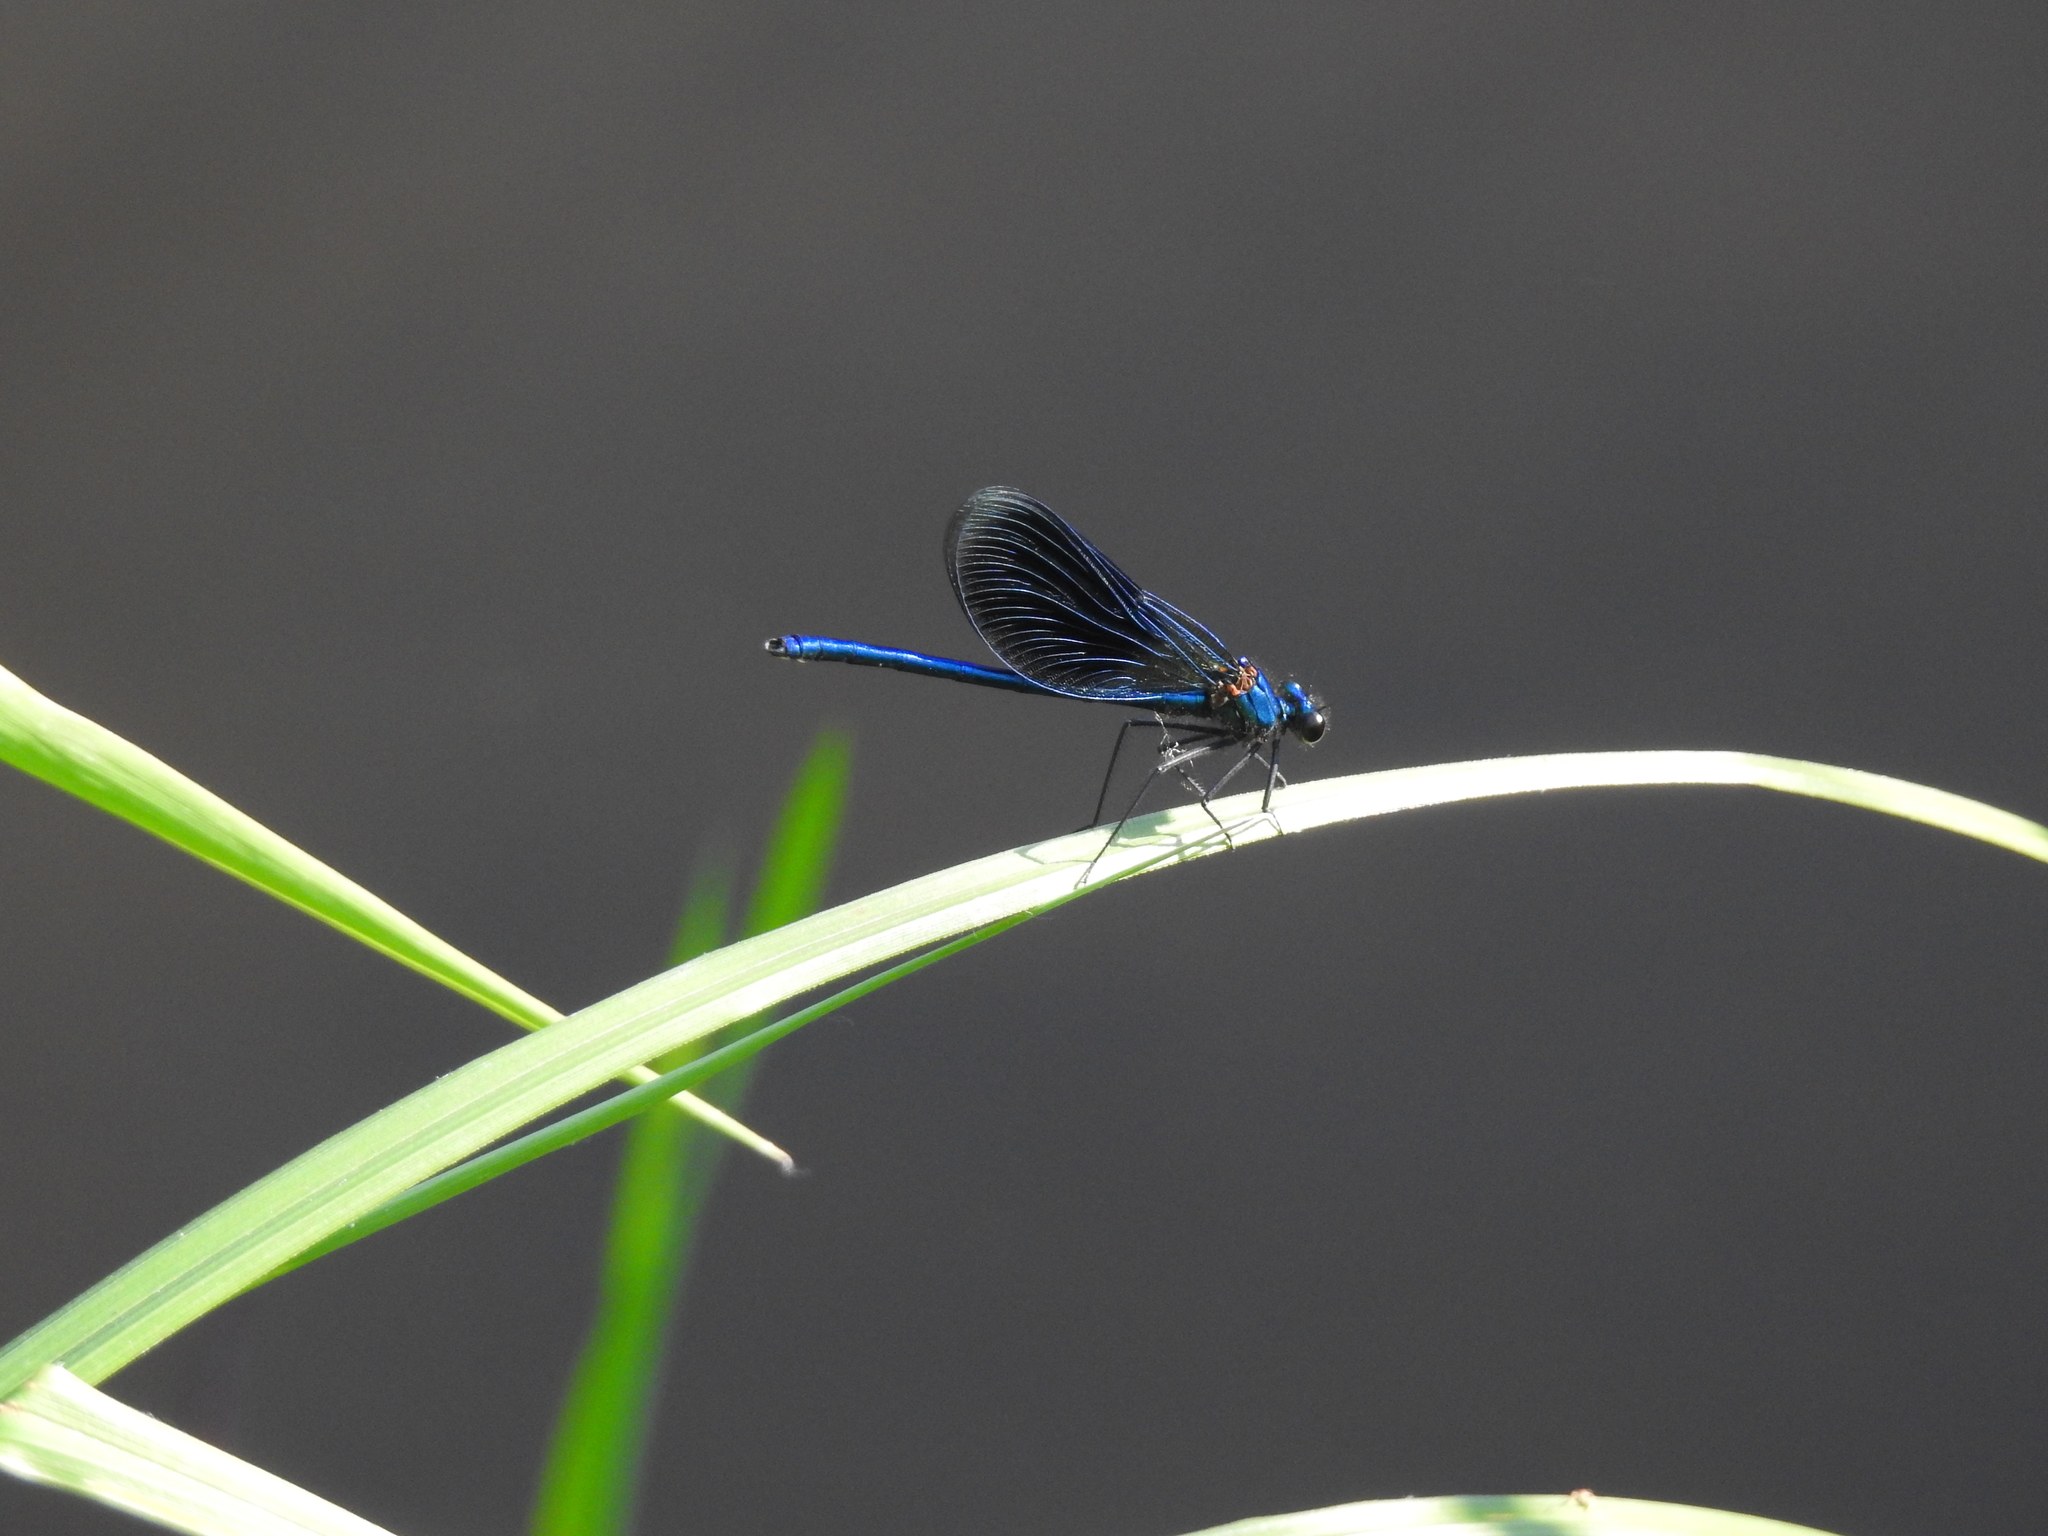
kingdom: Animalia
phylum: Arthropoda
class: Insecta
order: Odonata
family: Calopterygidae
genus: Calopteryx
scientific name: Calopteryx splendens
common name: Banded demoiselle
